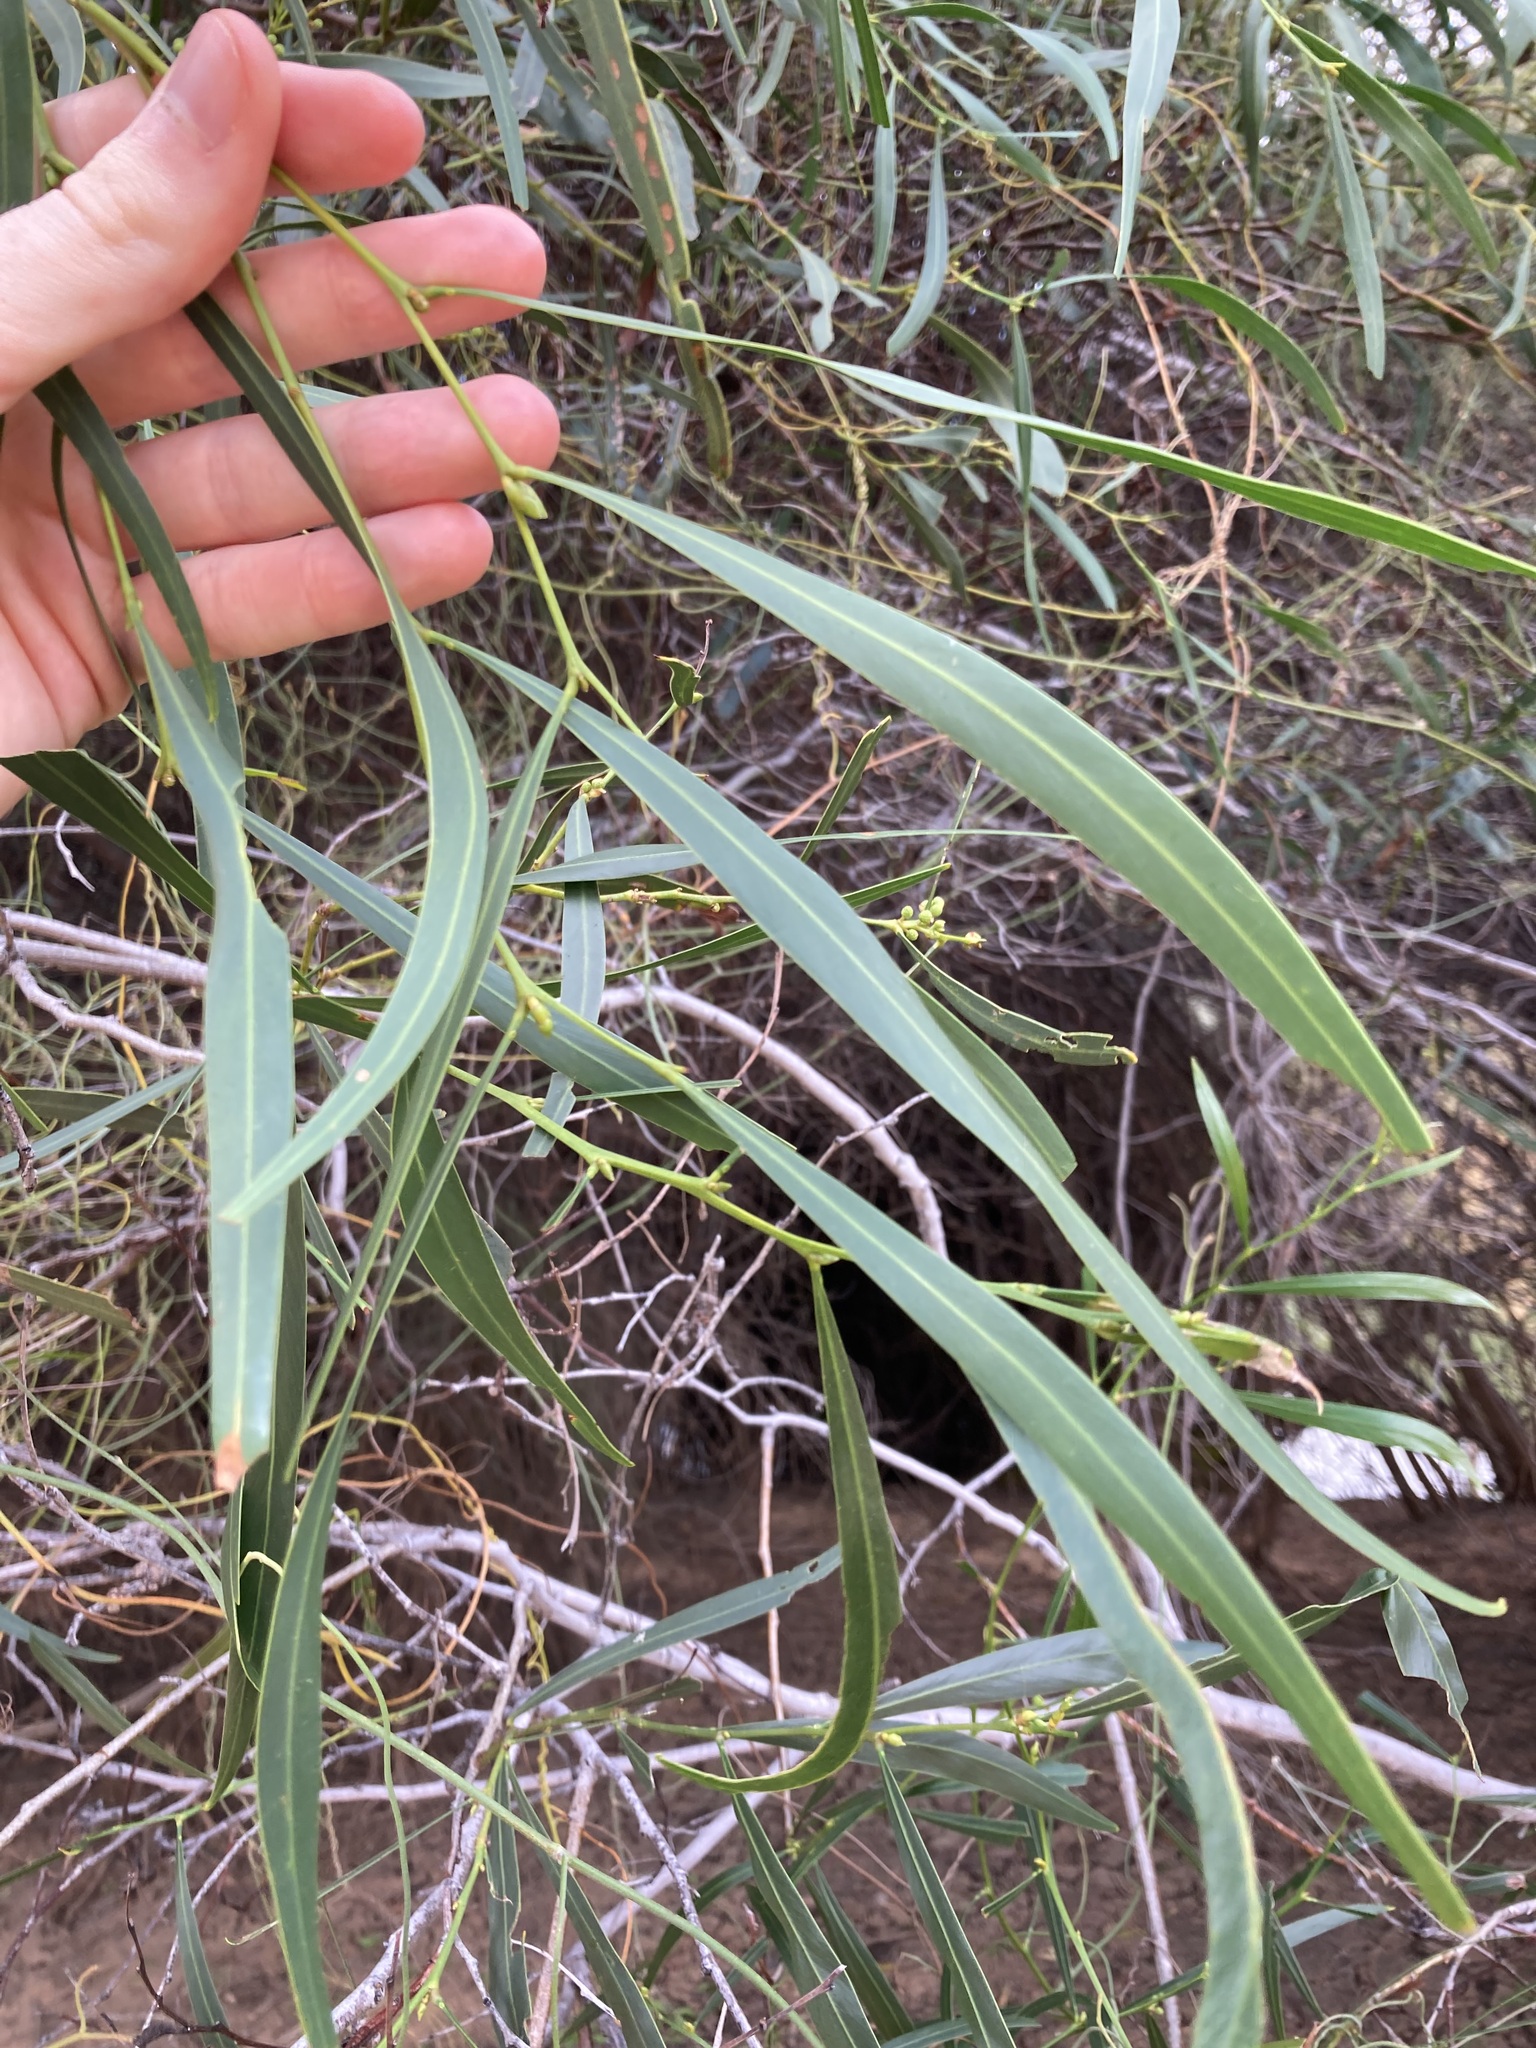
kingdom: Plantae
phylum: Tracheophyta
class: Magnoliopsida
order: Fabales
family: Fabaceae
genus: Acacia
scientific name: Acacia saligna
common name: Orange wattle
